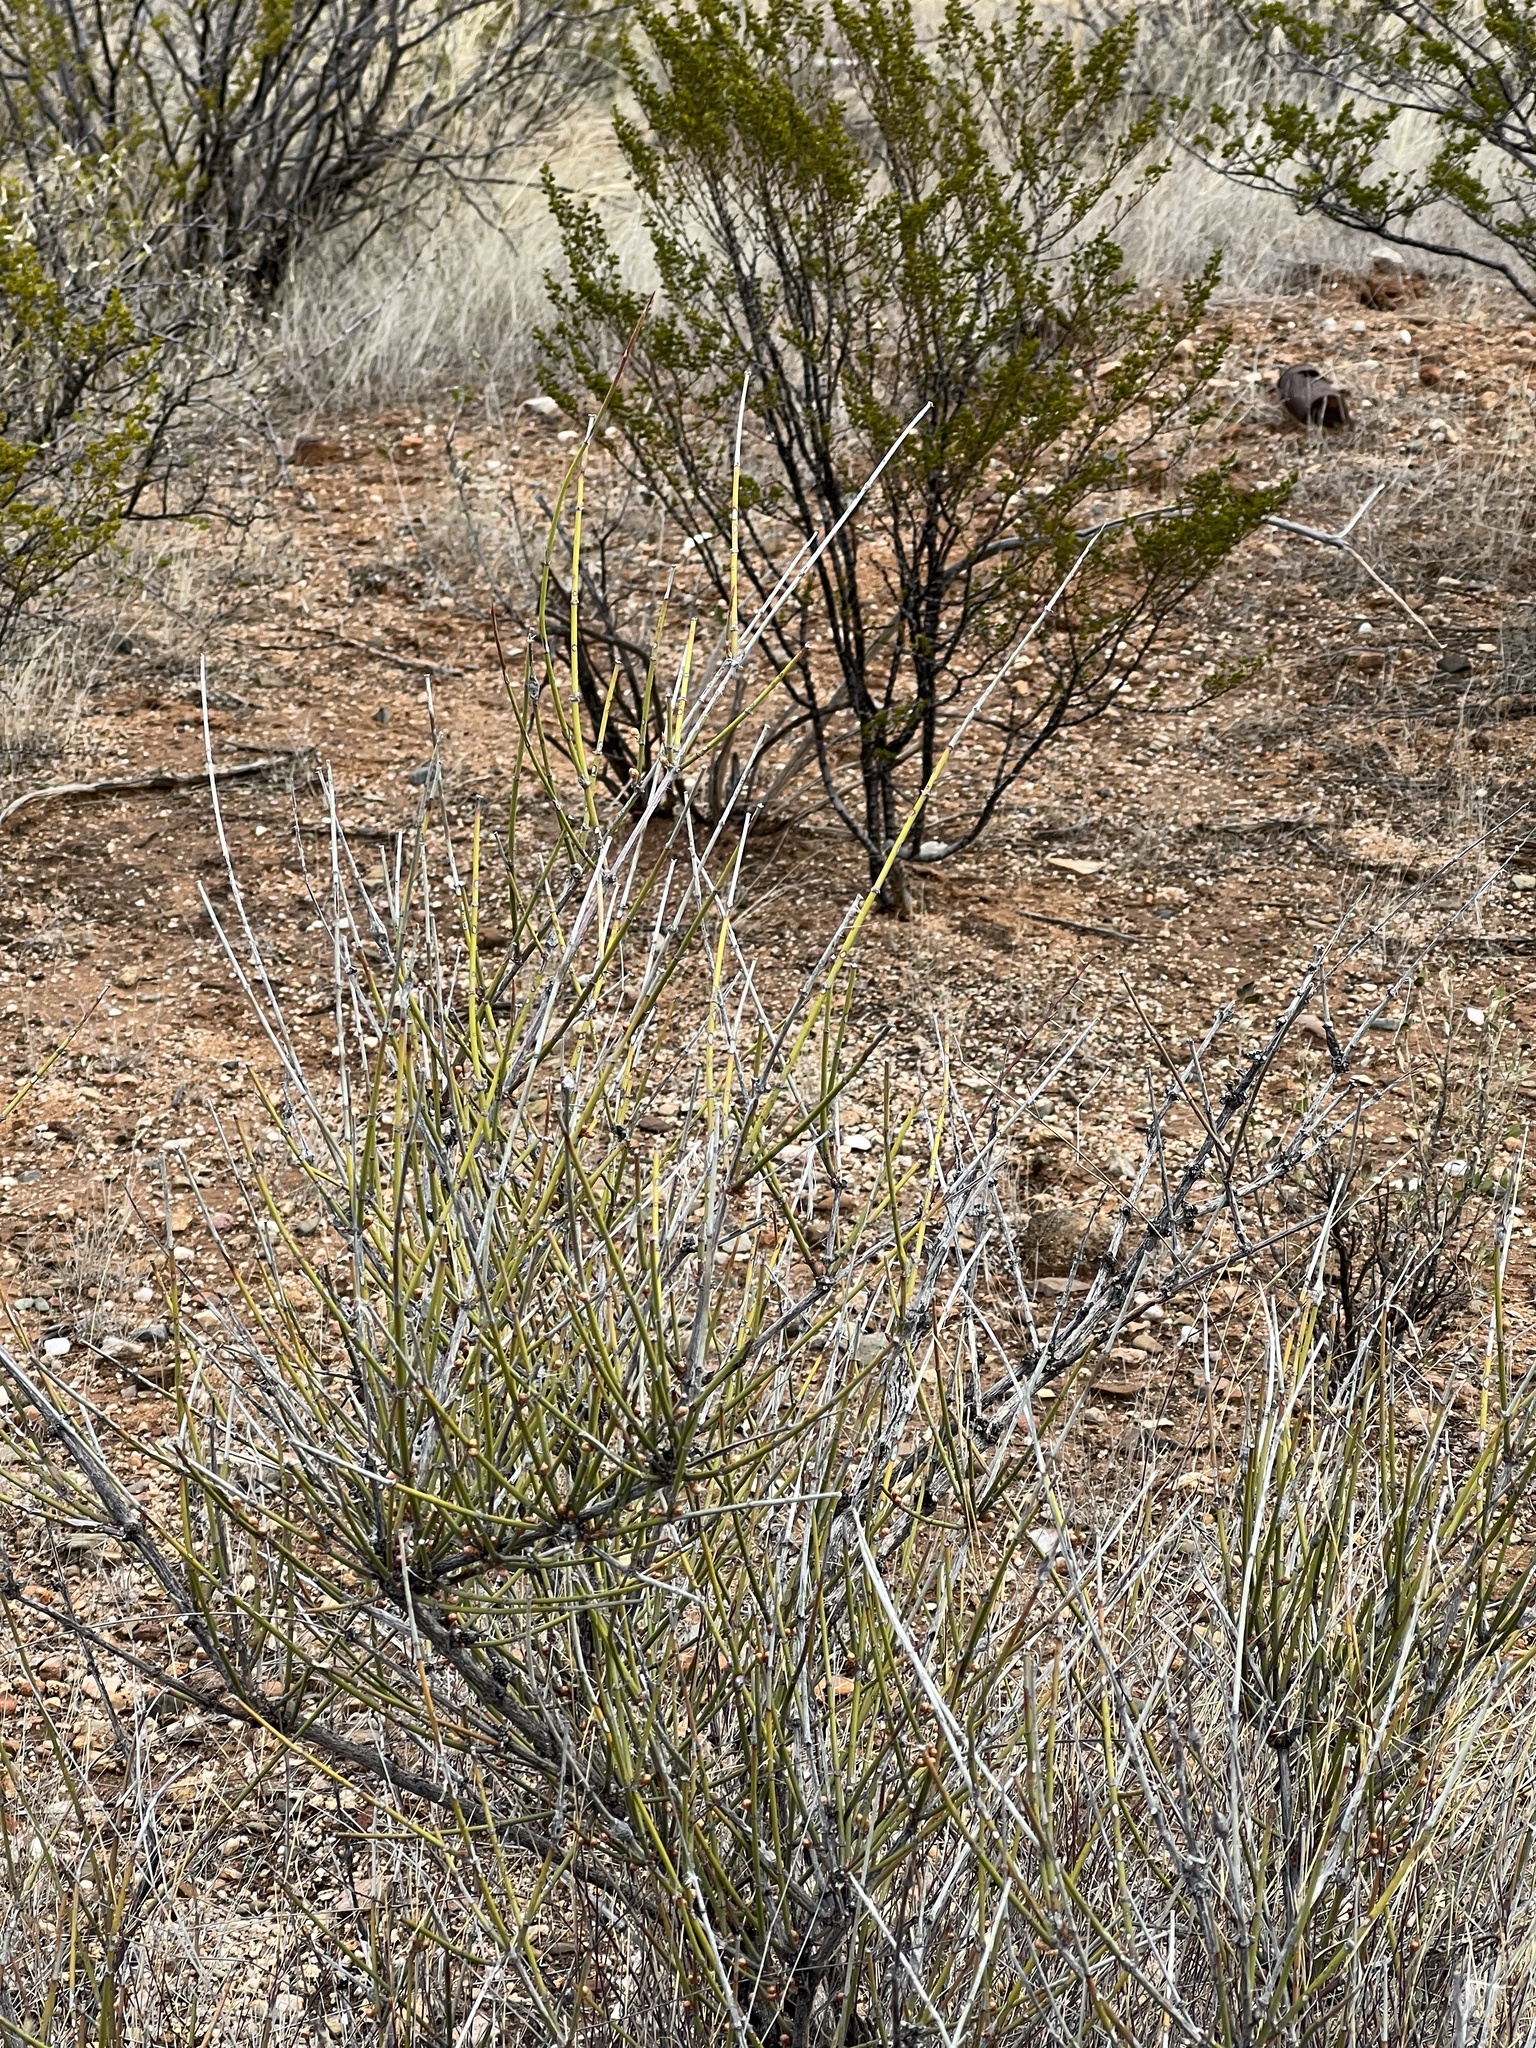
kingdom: Plantae
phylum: Tracheophyta
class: Gnetopsida
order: Ephedrales
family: Ephedraceae
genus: Ephedra
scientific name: Ephedra trifurca
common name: Mexican-tea
